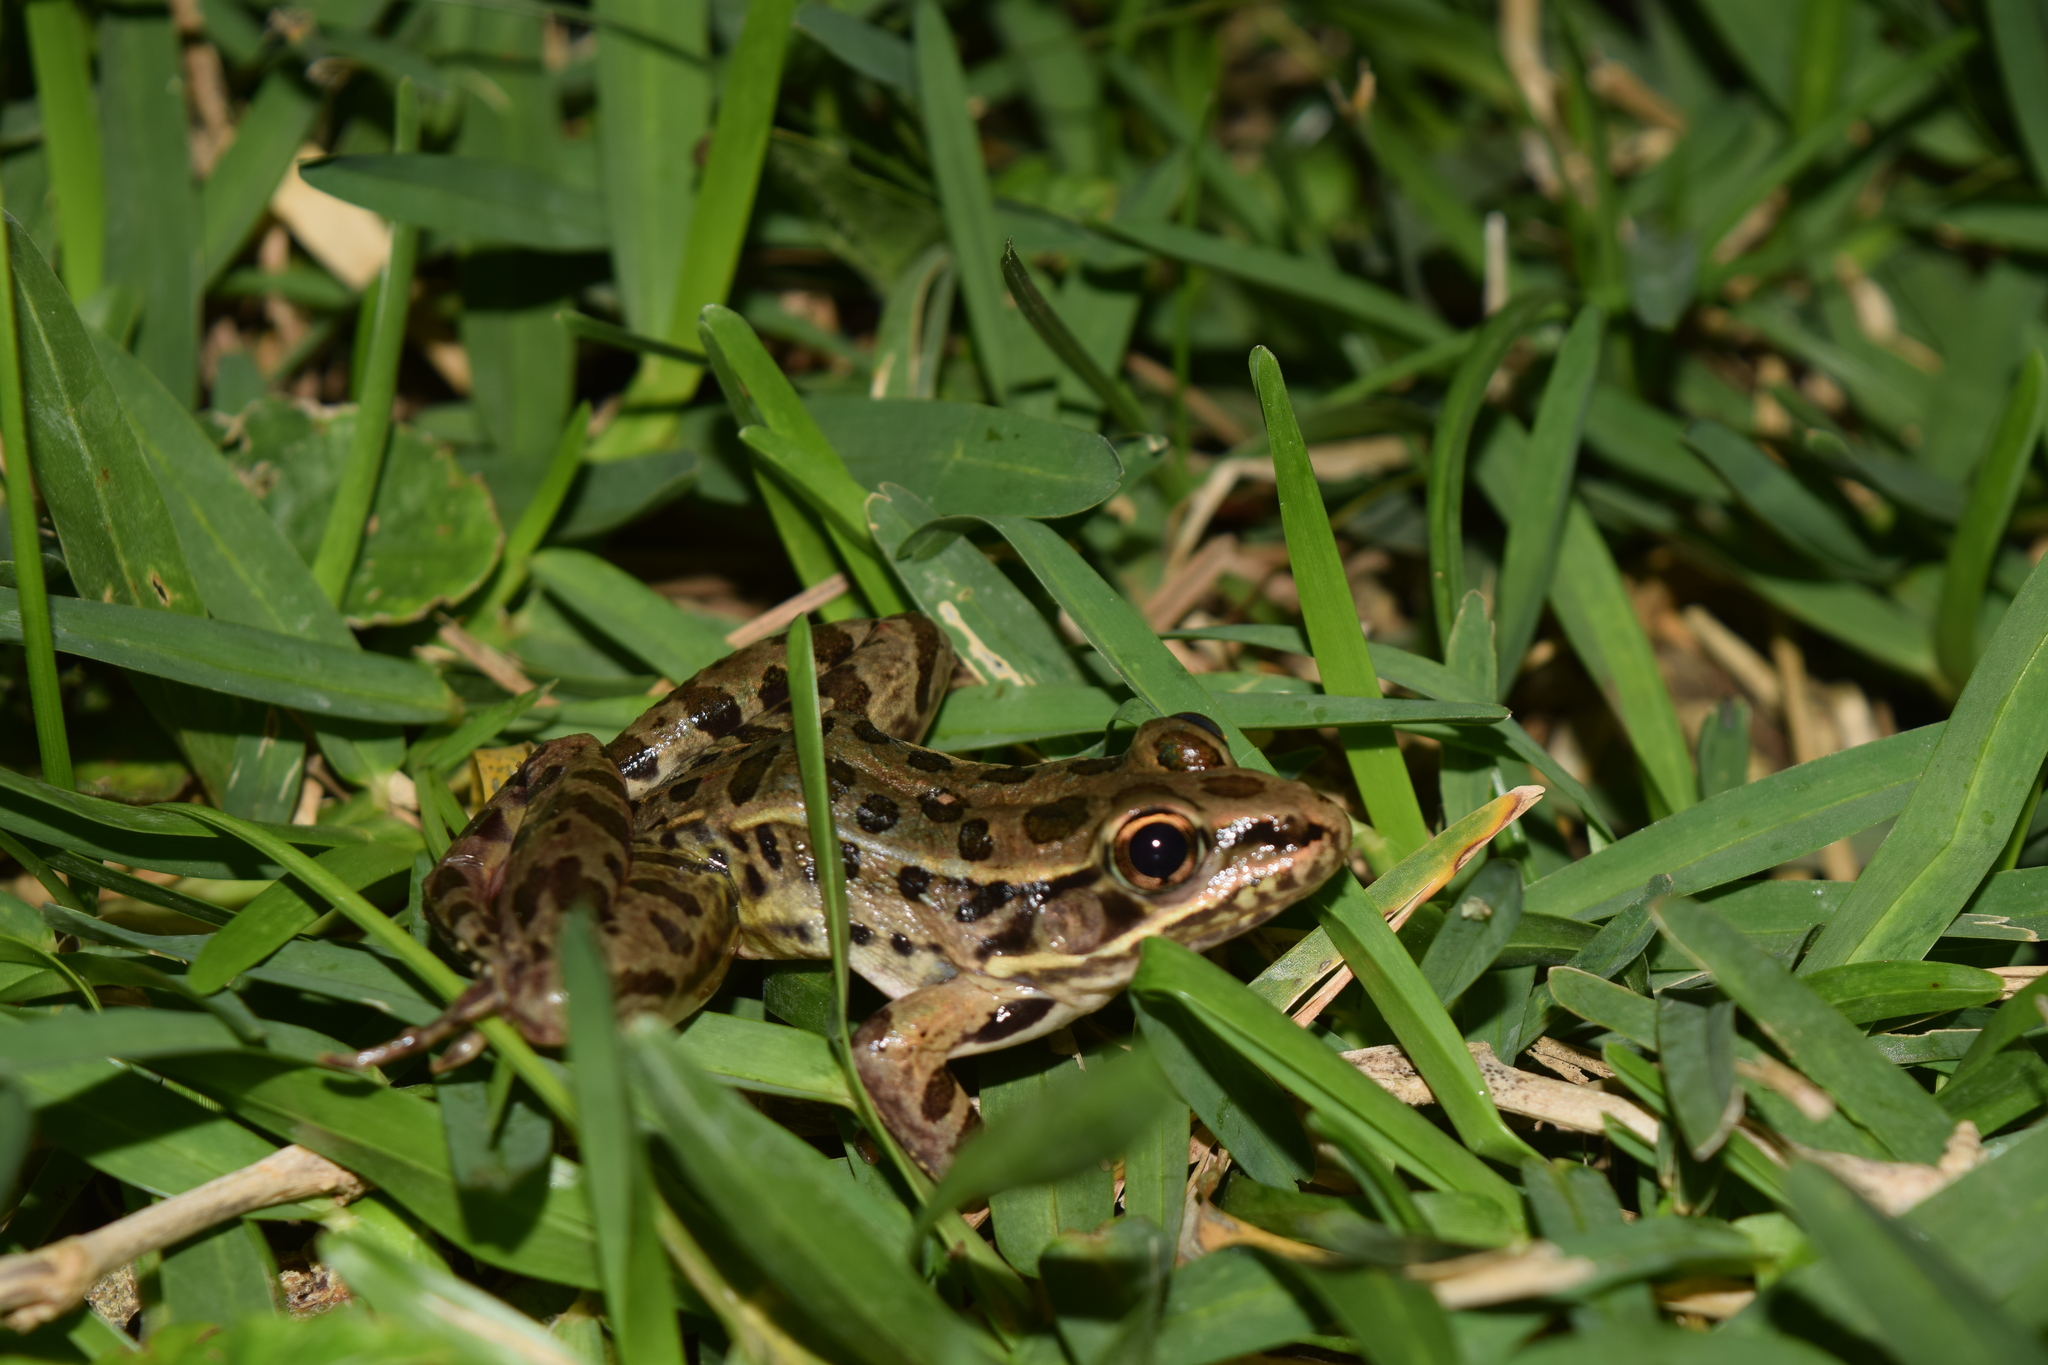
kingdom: Animalia
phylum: Chordata
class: Amphibia
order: Anura
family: Ranidae
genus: Lithobates
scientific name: Lithobates berlandieri
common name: Rio grande leopard frog
